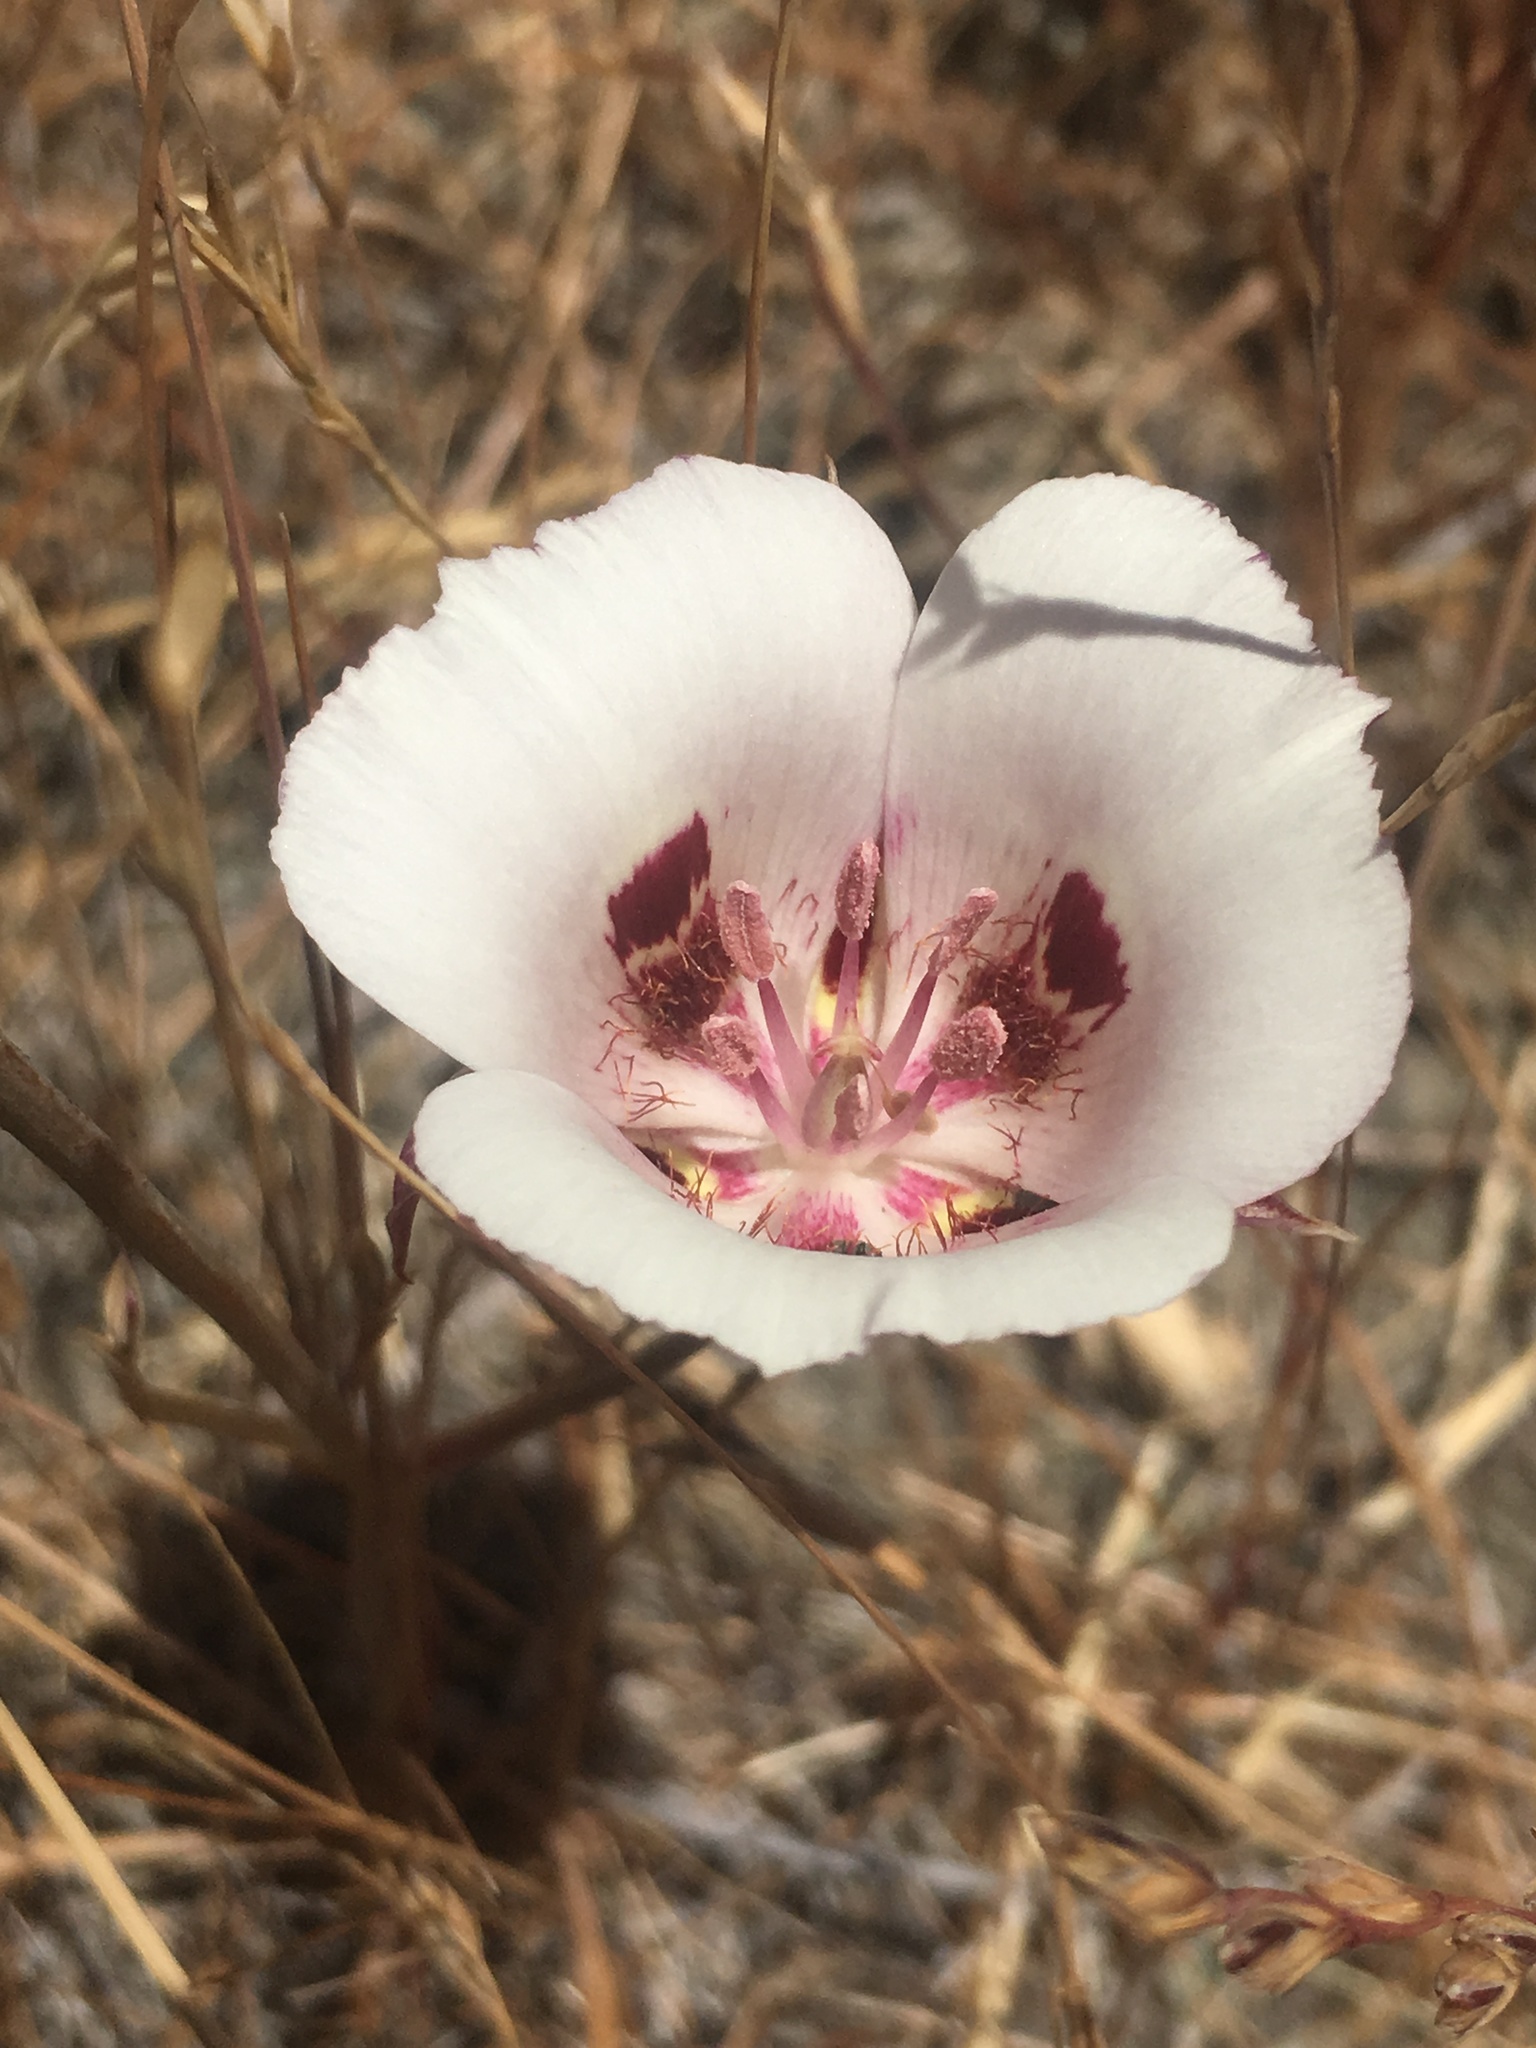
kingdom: Plantae
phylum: Tracheophyta
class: Liliopsida
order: Liliales
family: Liliaceae
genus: Calochortus
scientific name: Calochortus argillosus
